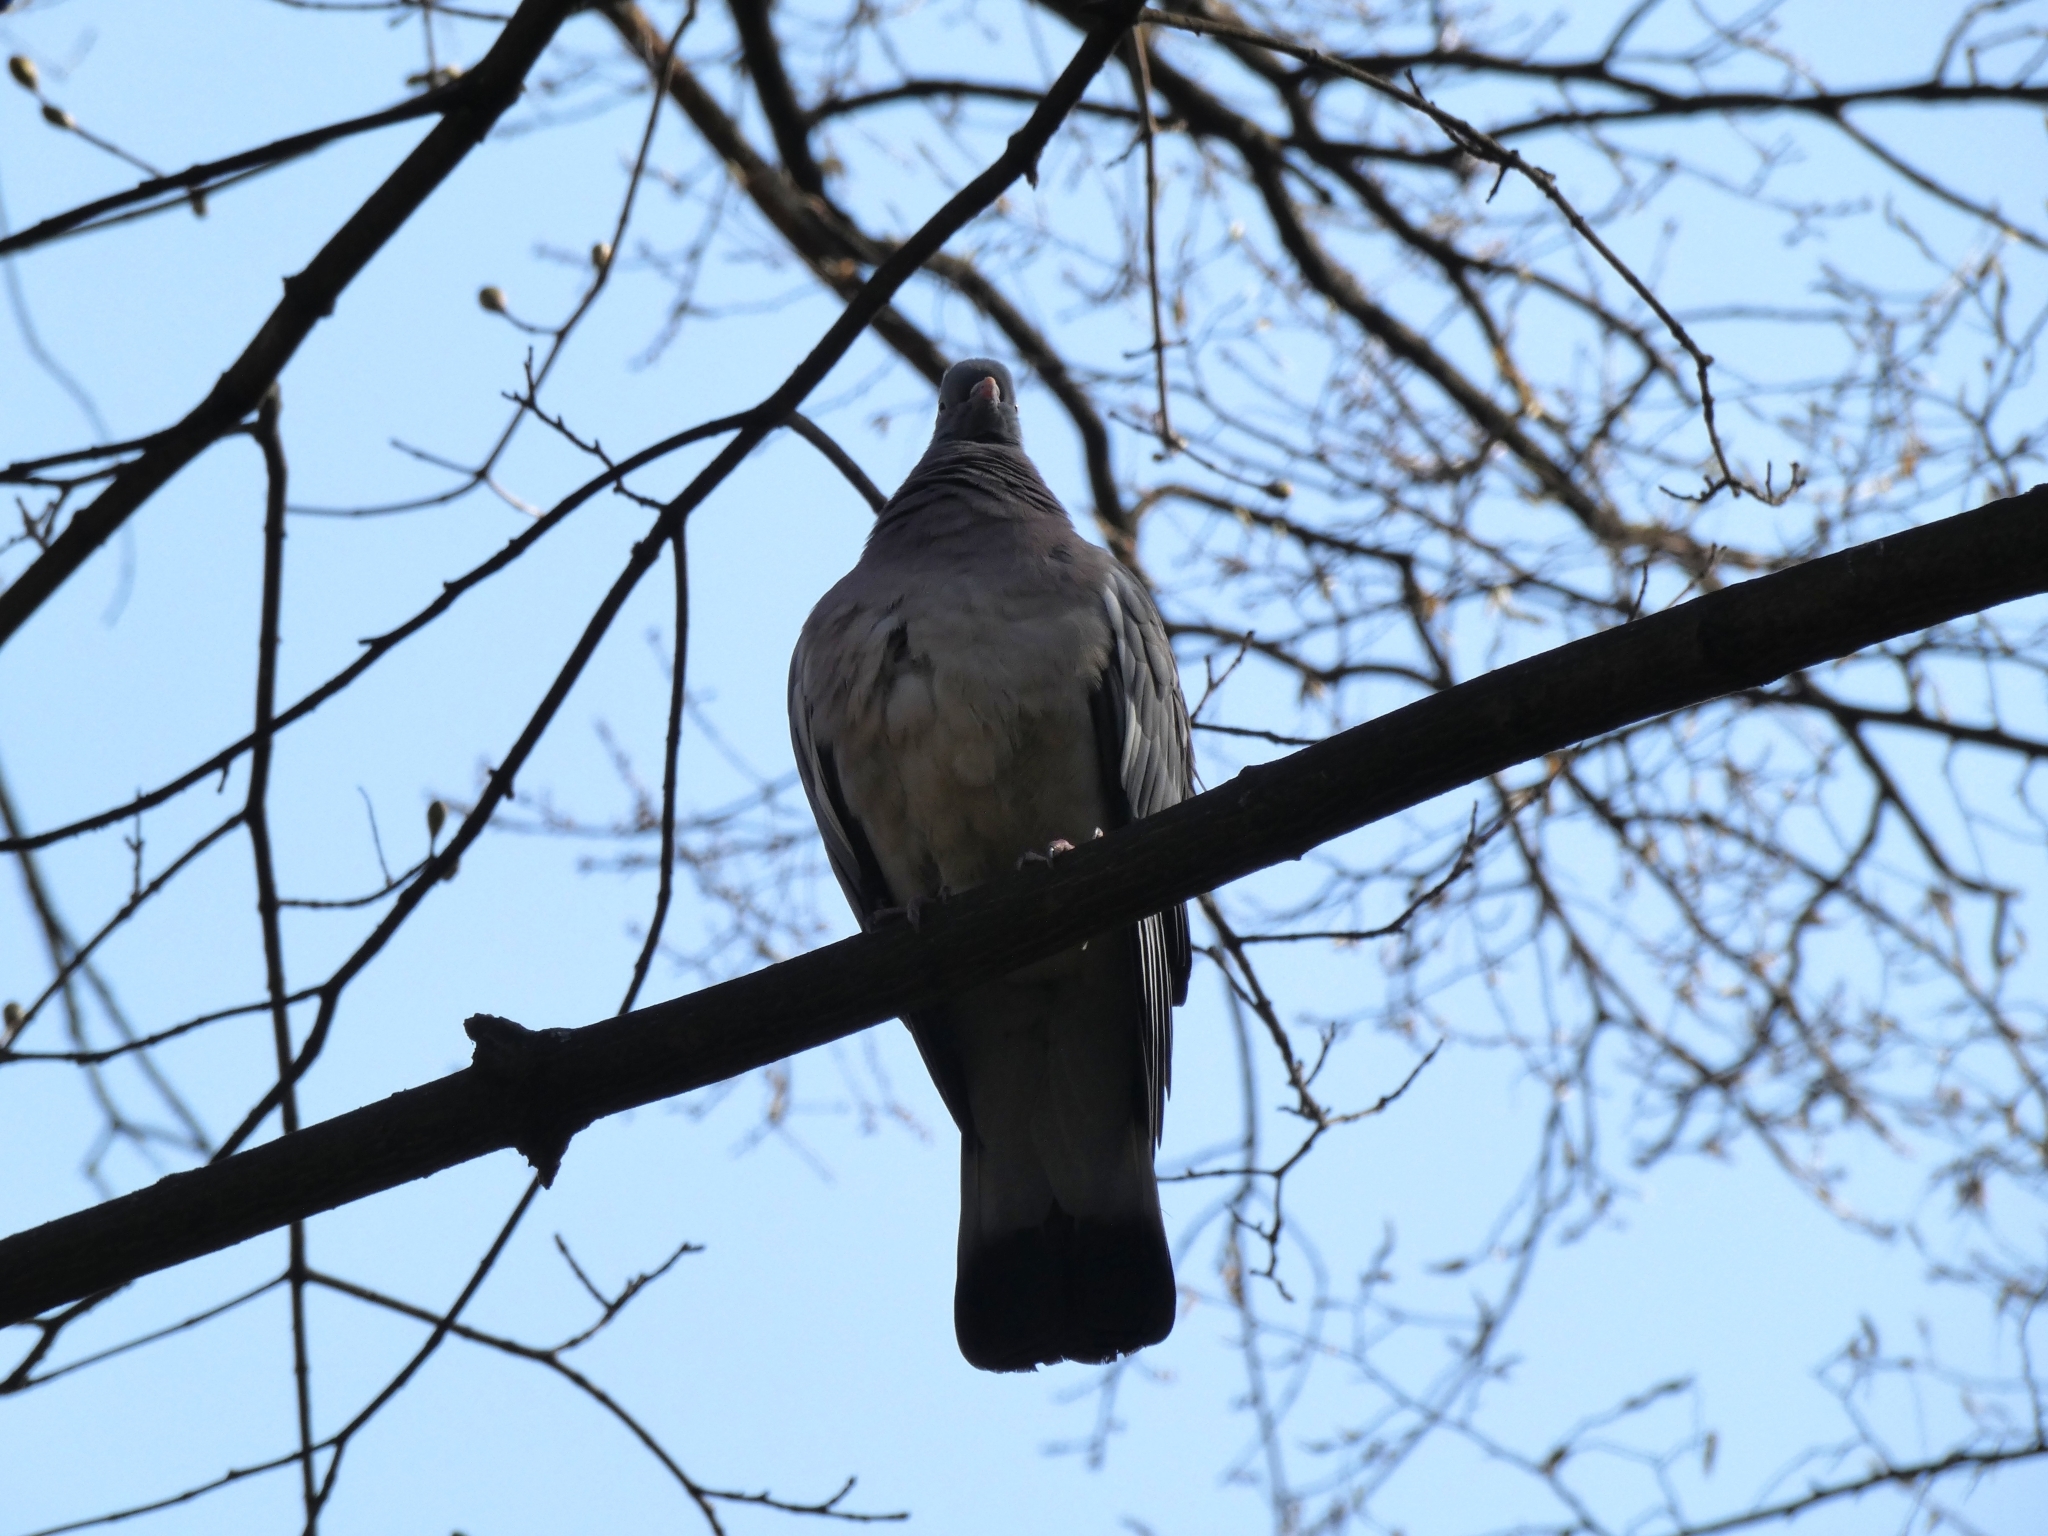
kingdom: Animalia
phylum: Chordata
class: Aves
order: Columbiformes
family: Columbidae
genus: Columba
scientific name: Columba palumbus
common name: Common wood pigeon
